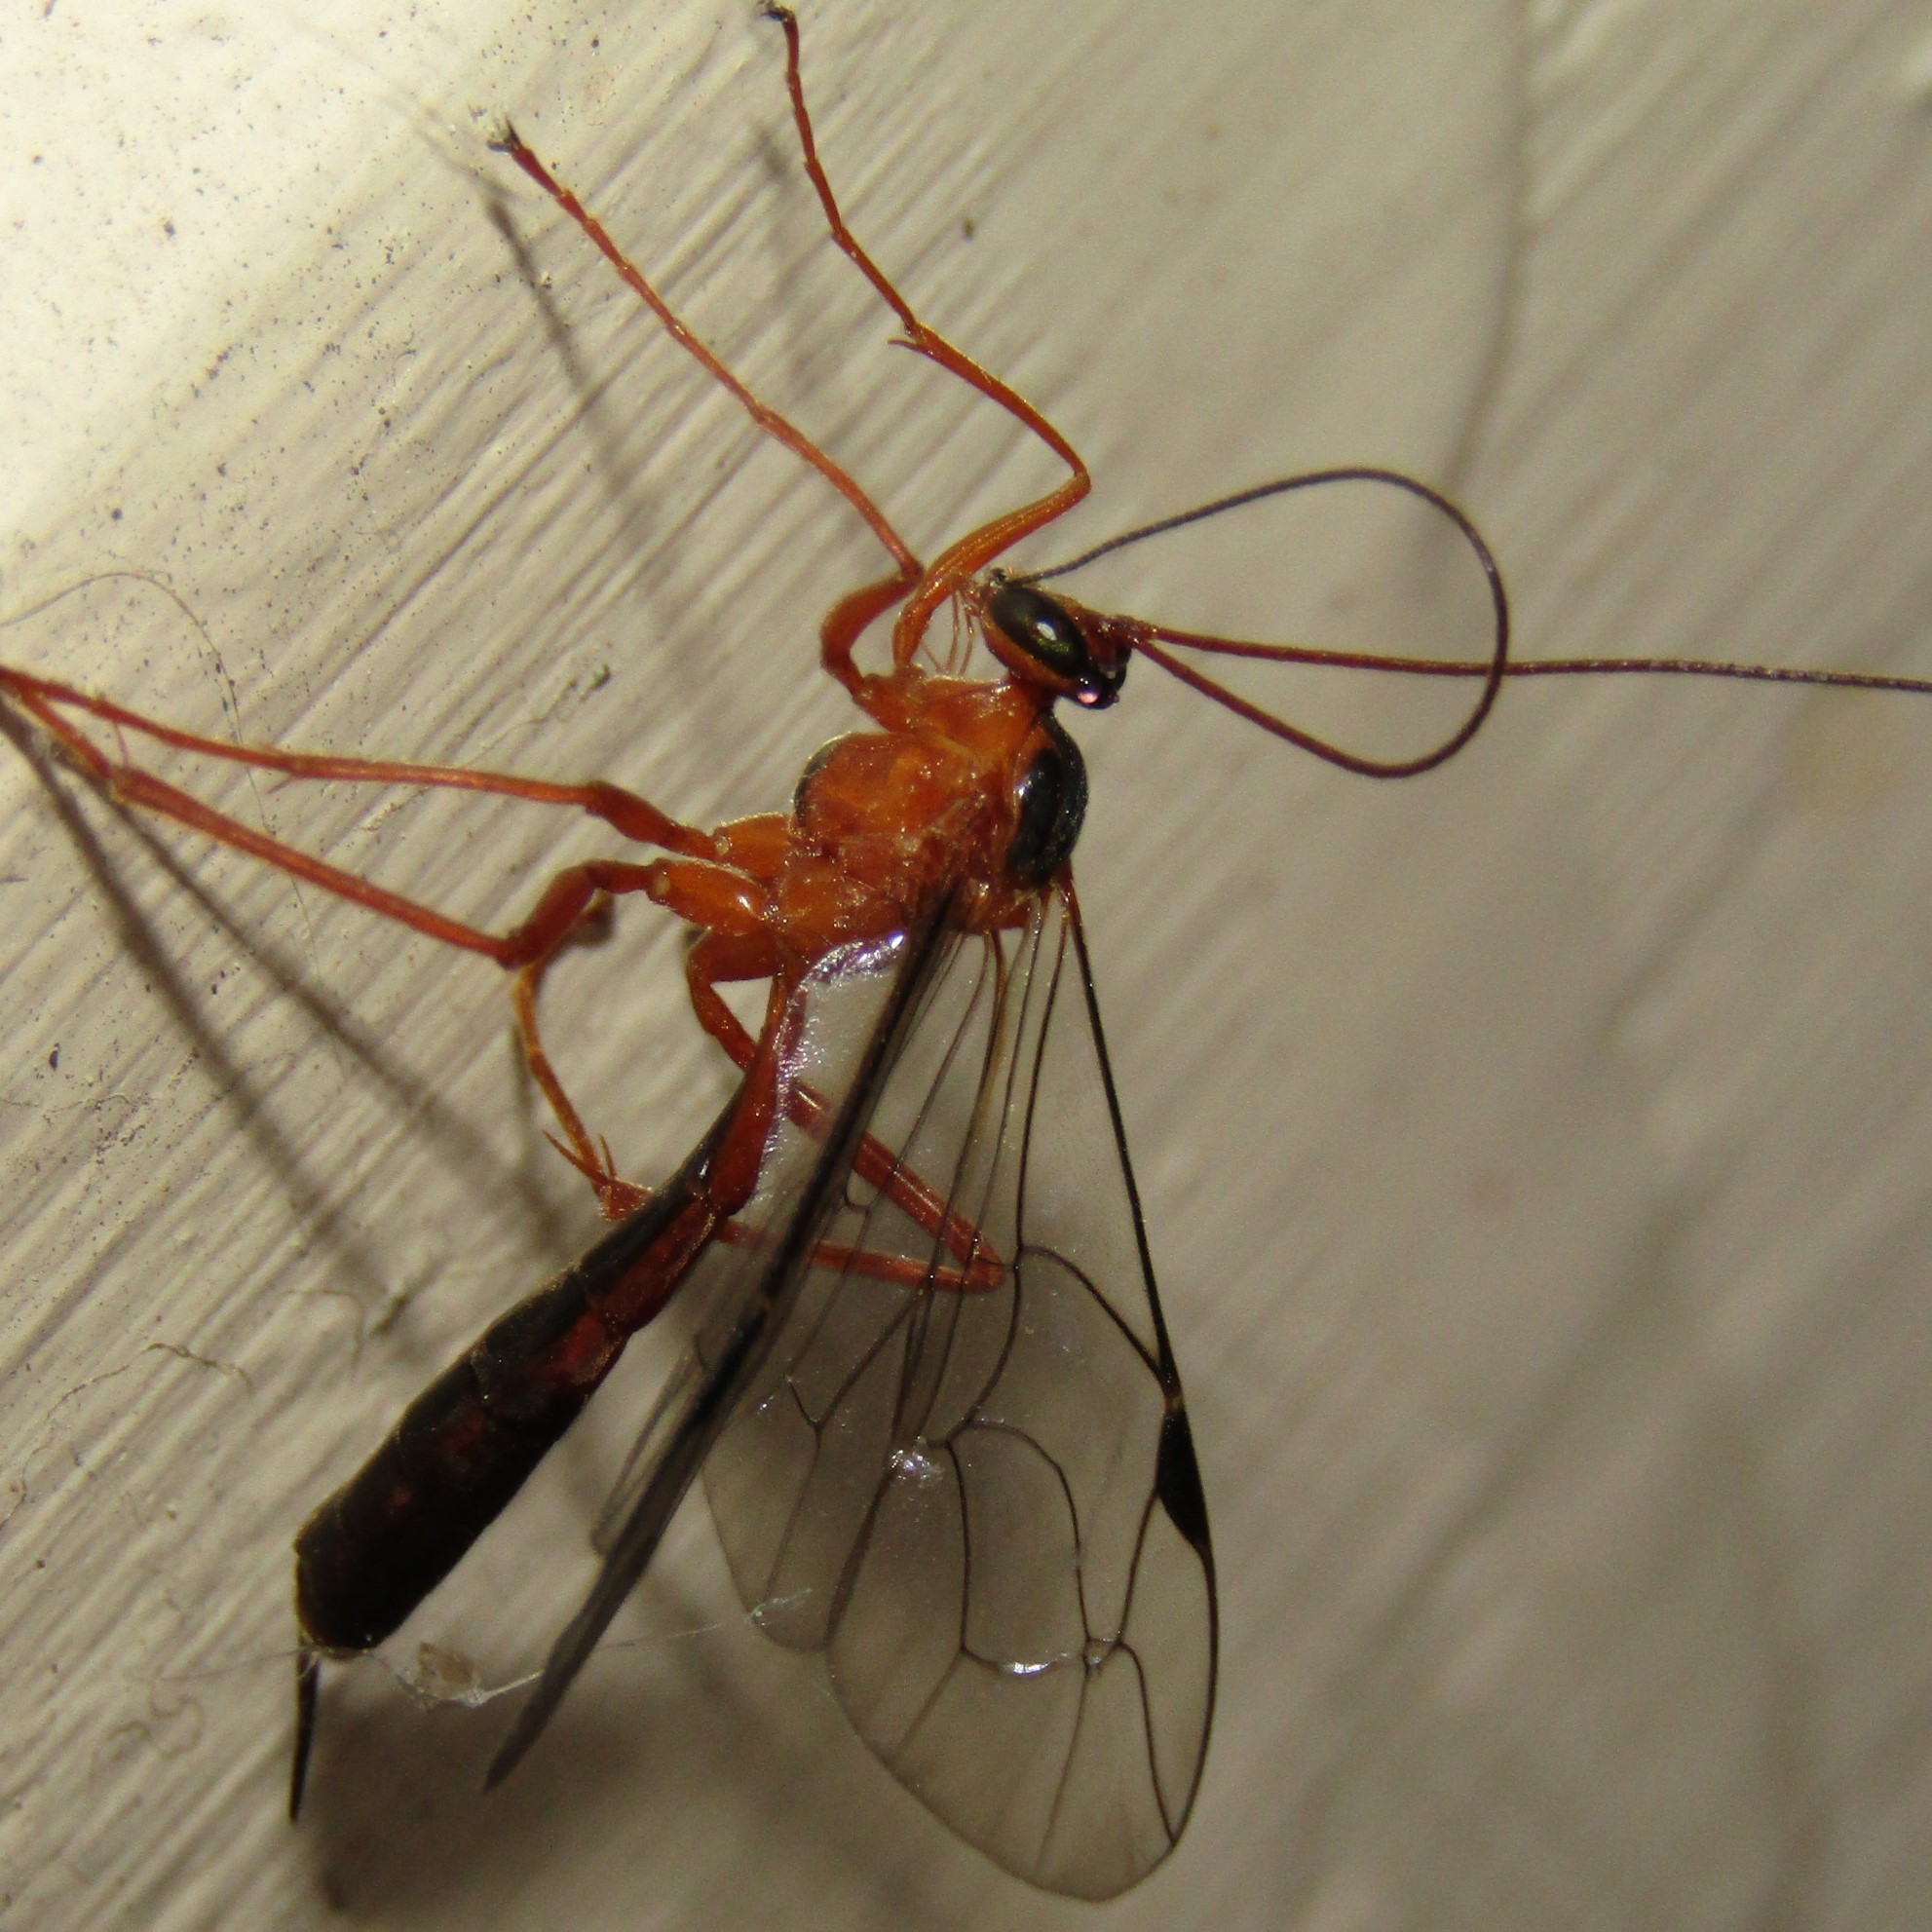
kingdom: Animalia
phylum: Arthropoda
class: Insecta
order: Hymenoptera
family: Ichneumonidae
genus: Netelia
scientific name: Netelia ephippiata
